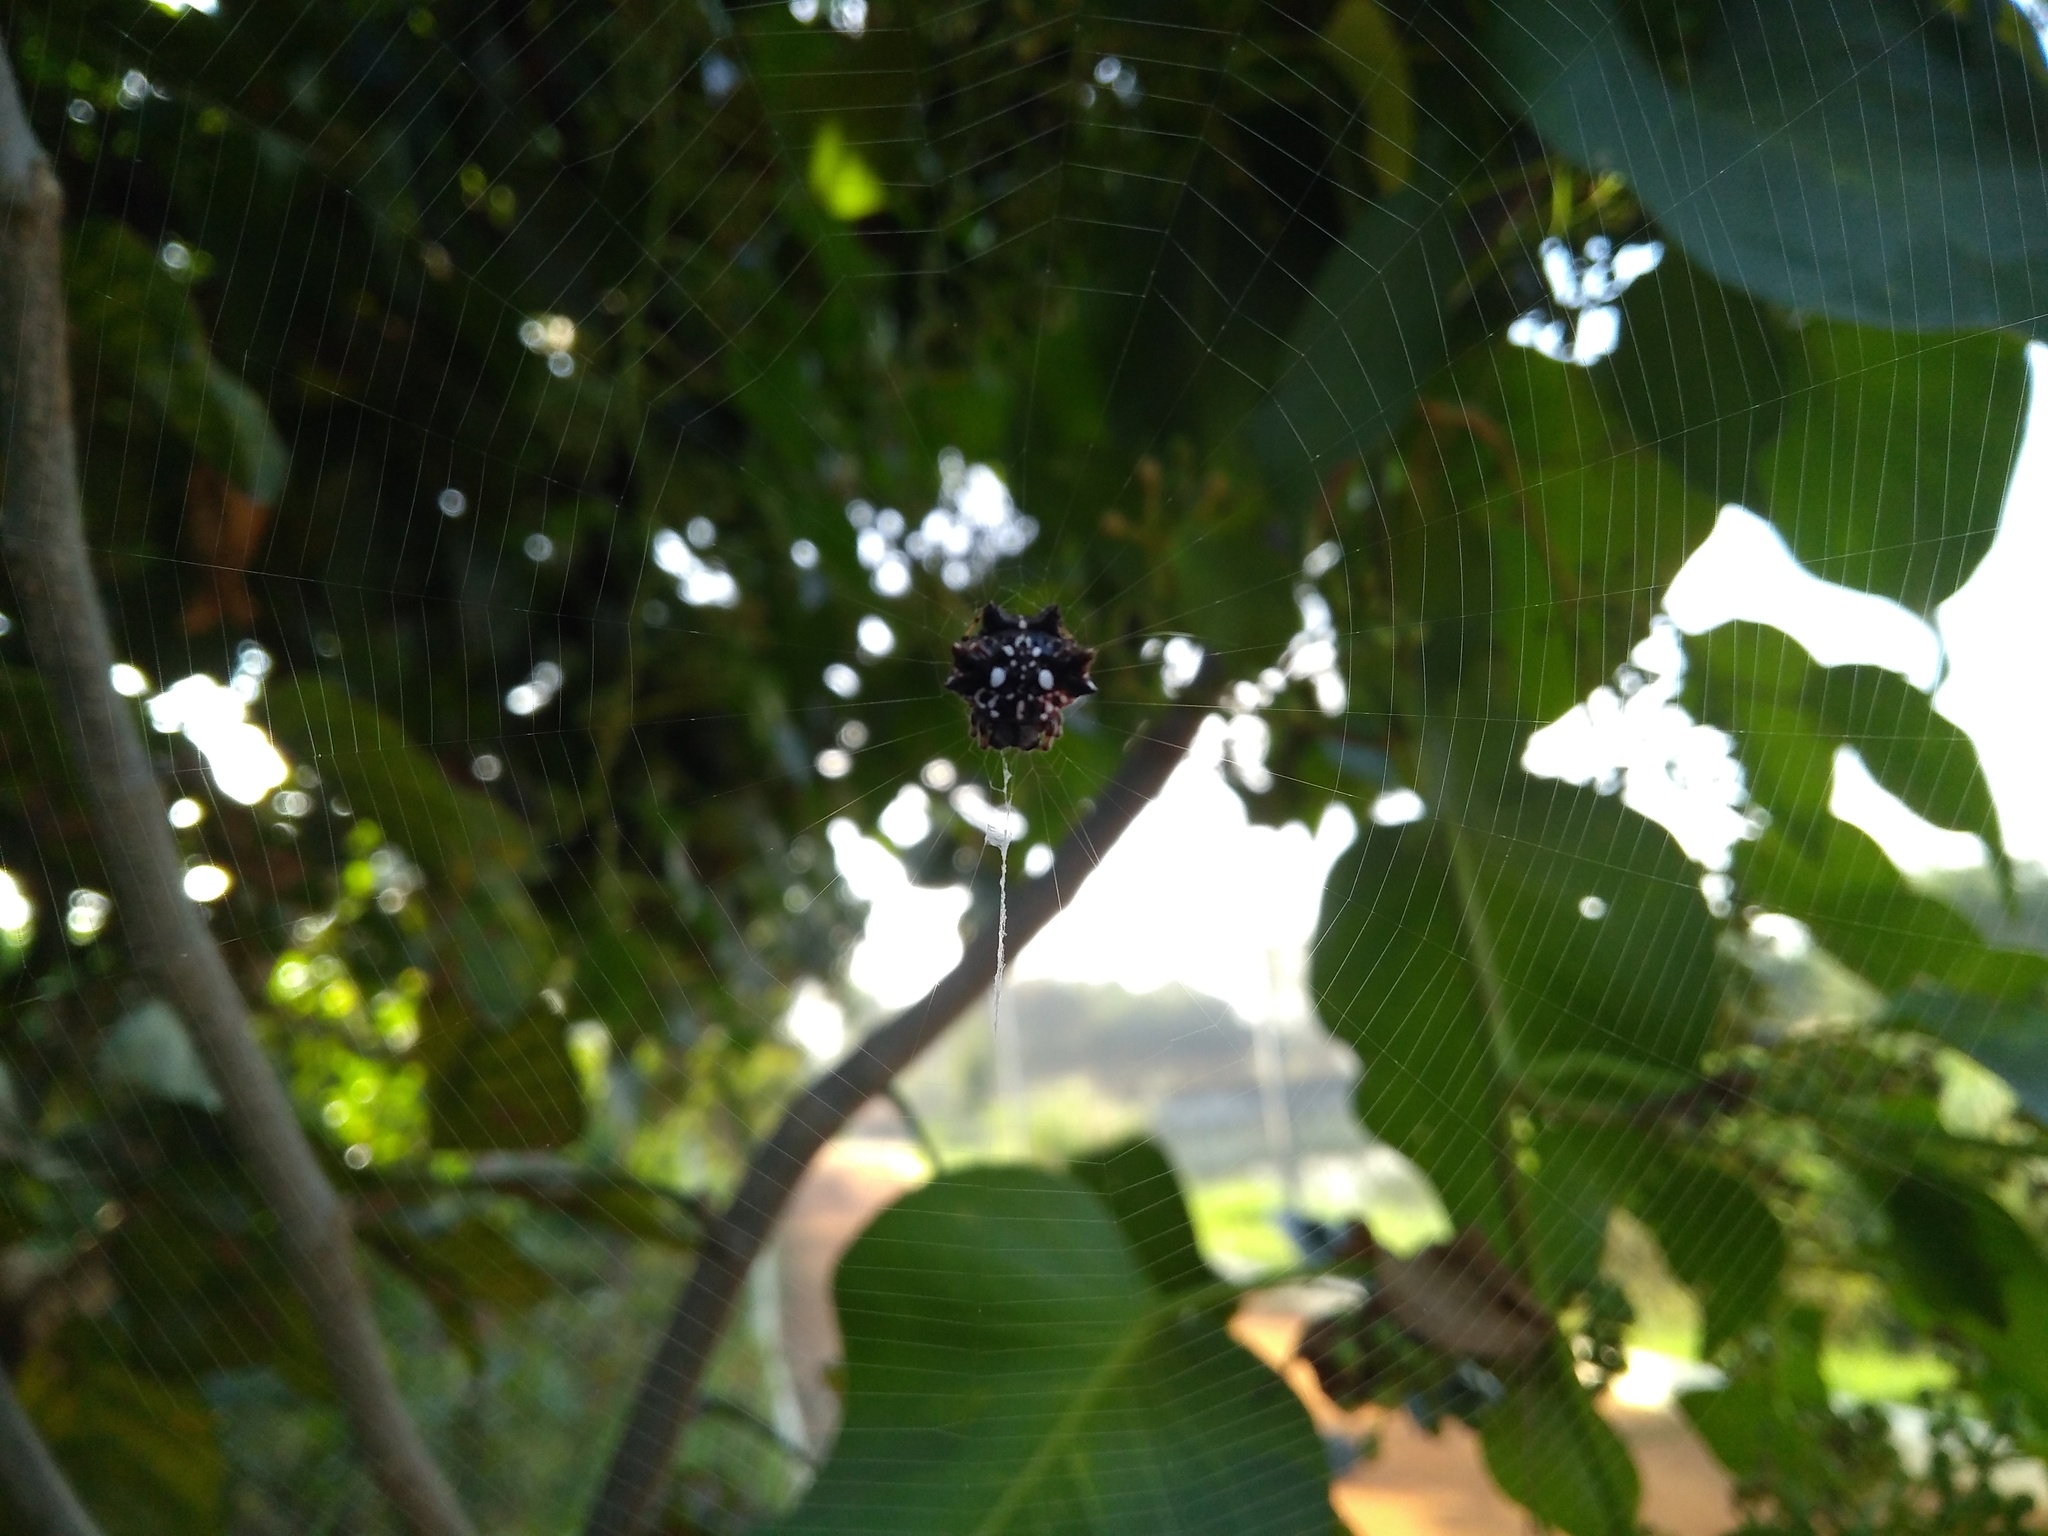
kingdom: Animalia
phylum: Arthropoda
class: Arachnida
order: Araneae
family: Araneidae
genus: Thelacantha
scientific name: Thelacantha brevispina
